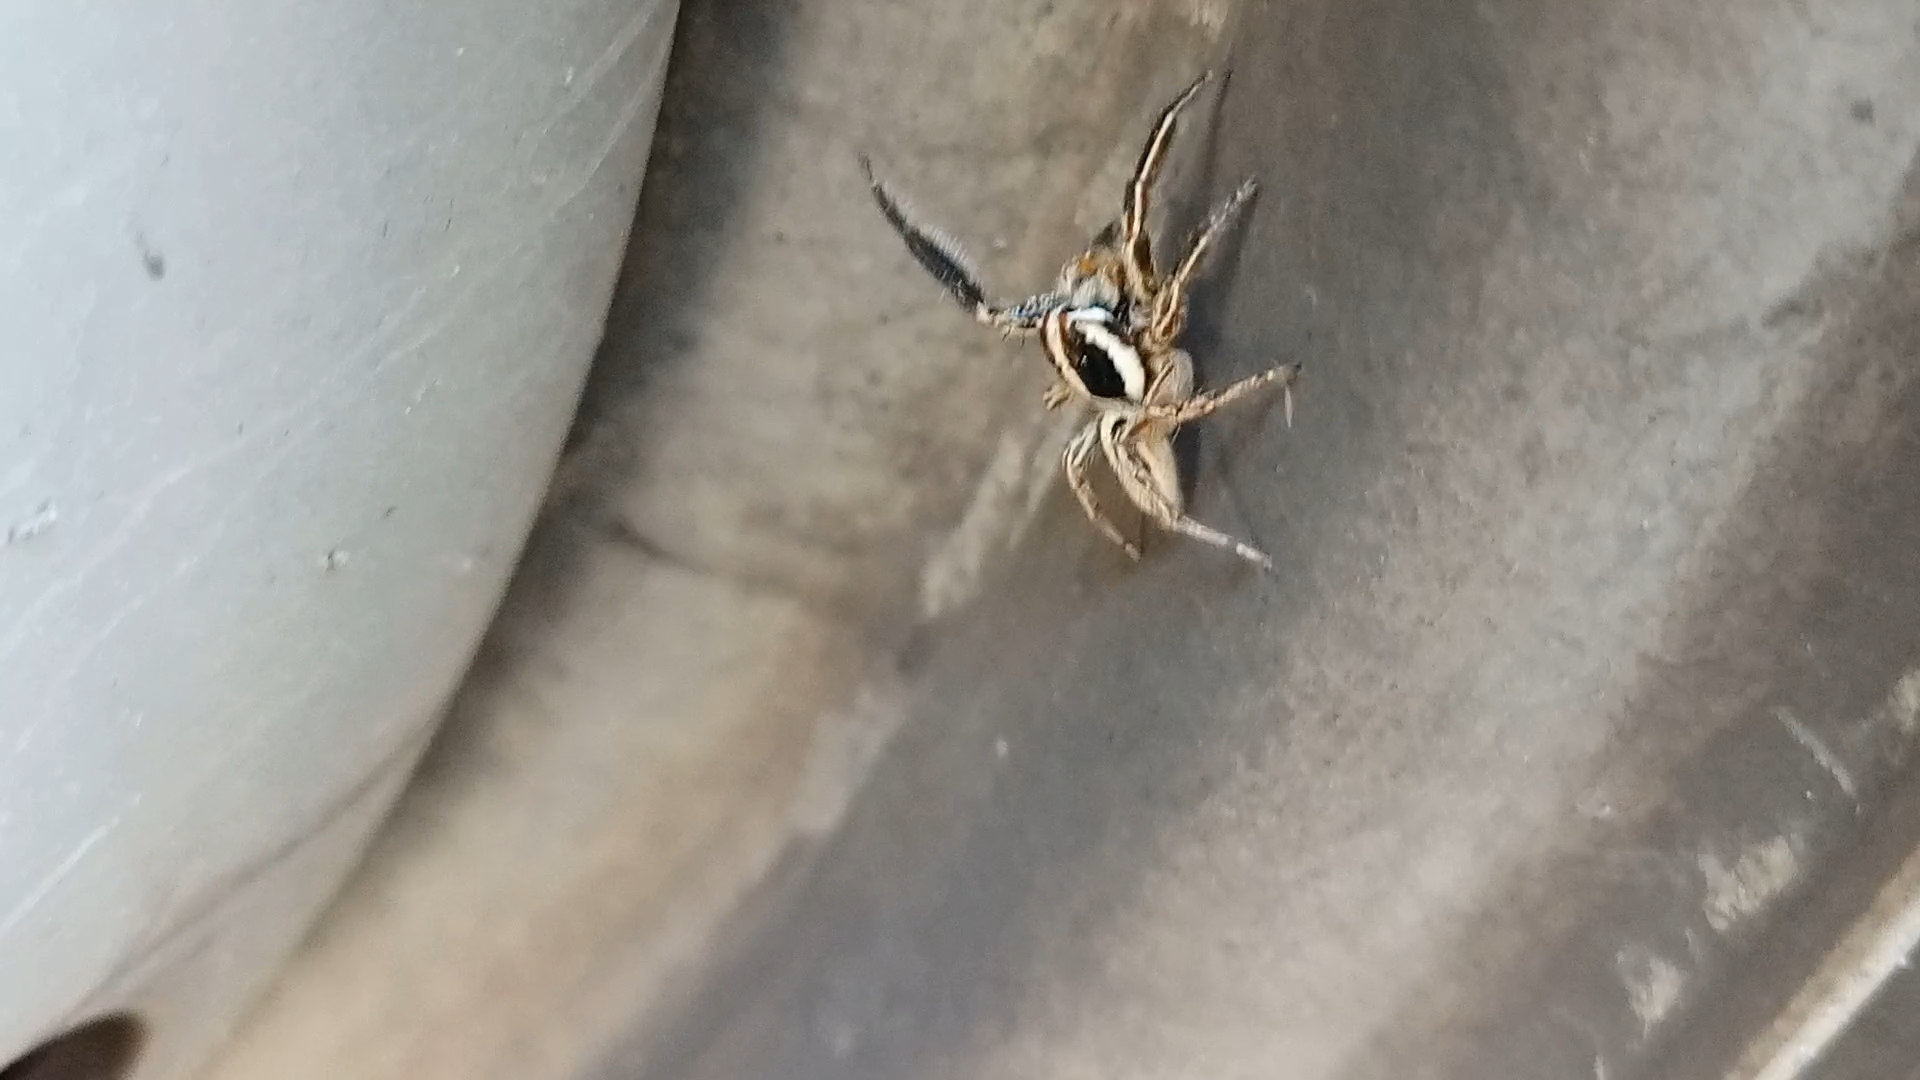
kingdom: Animalia
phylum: Arthropoda
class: Arachnida
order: Araneae
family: Salticidae
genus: Plexippus
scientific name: Plexippus paykulli
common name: Pantropical jumper
